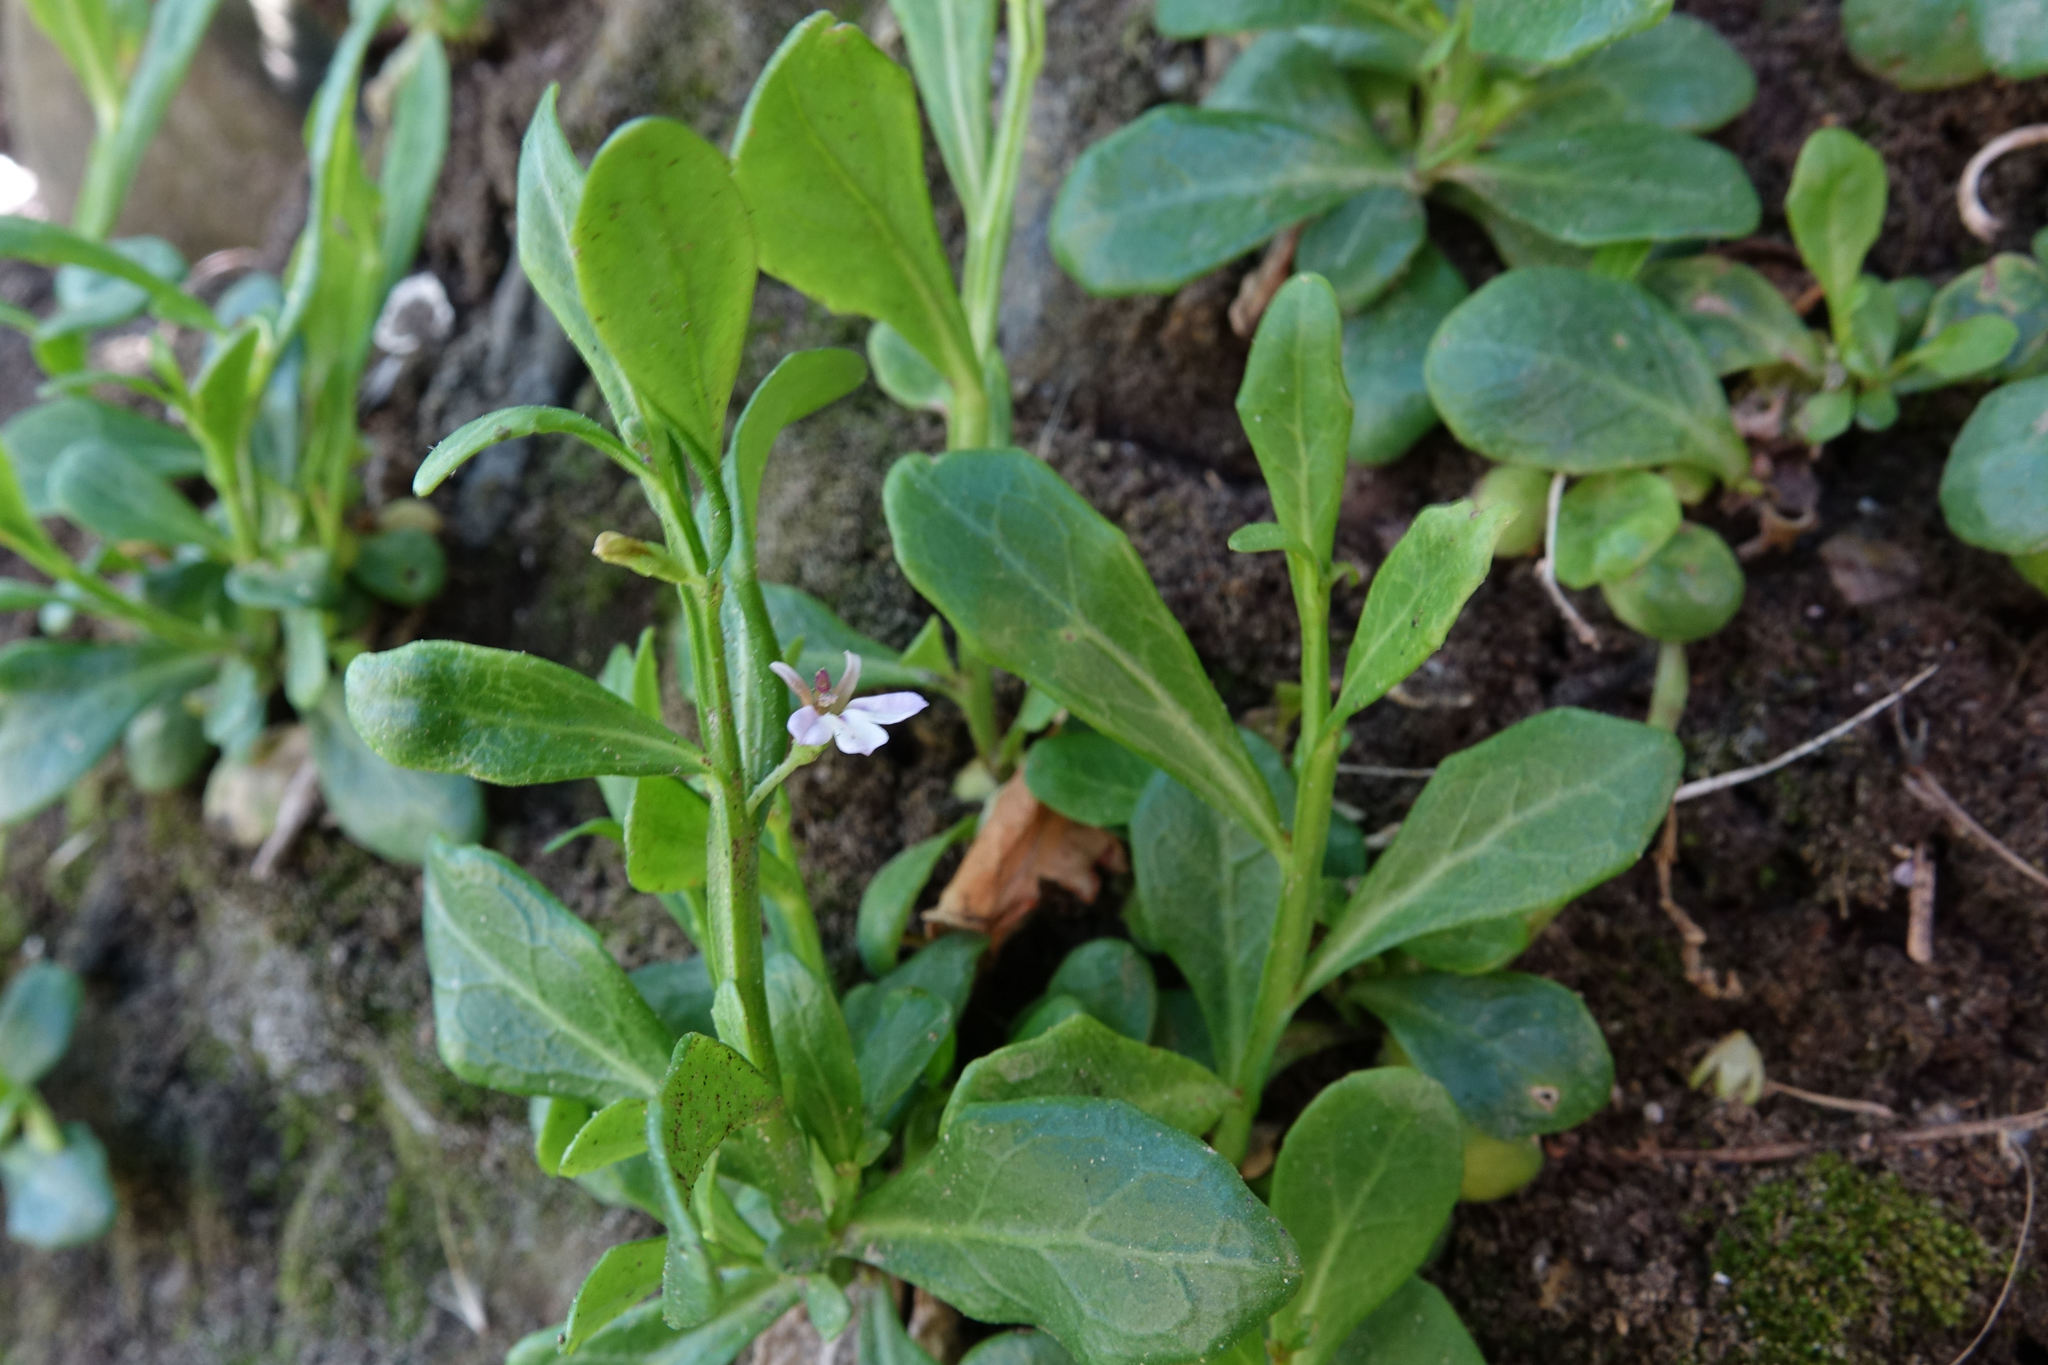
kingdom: Plantae
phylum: Tracheophyta
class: Magnoliopsida
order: Asterales
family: Campanulaceae
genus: Lobelia
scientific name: Lobelia anceps
